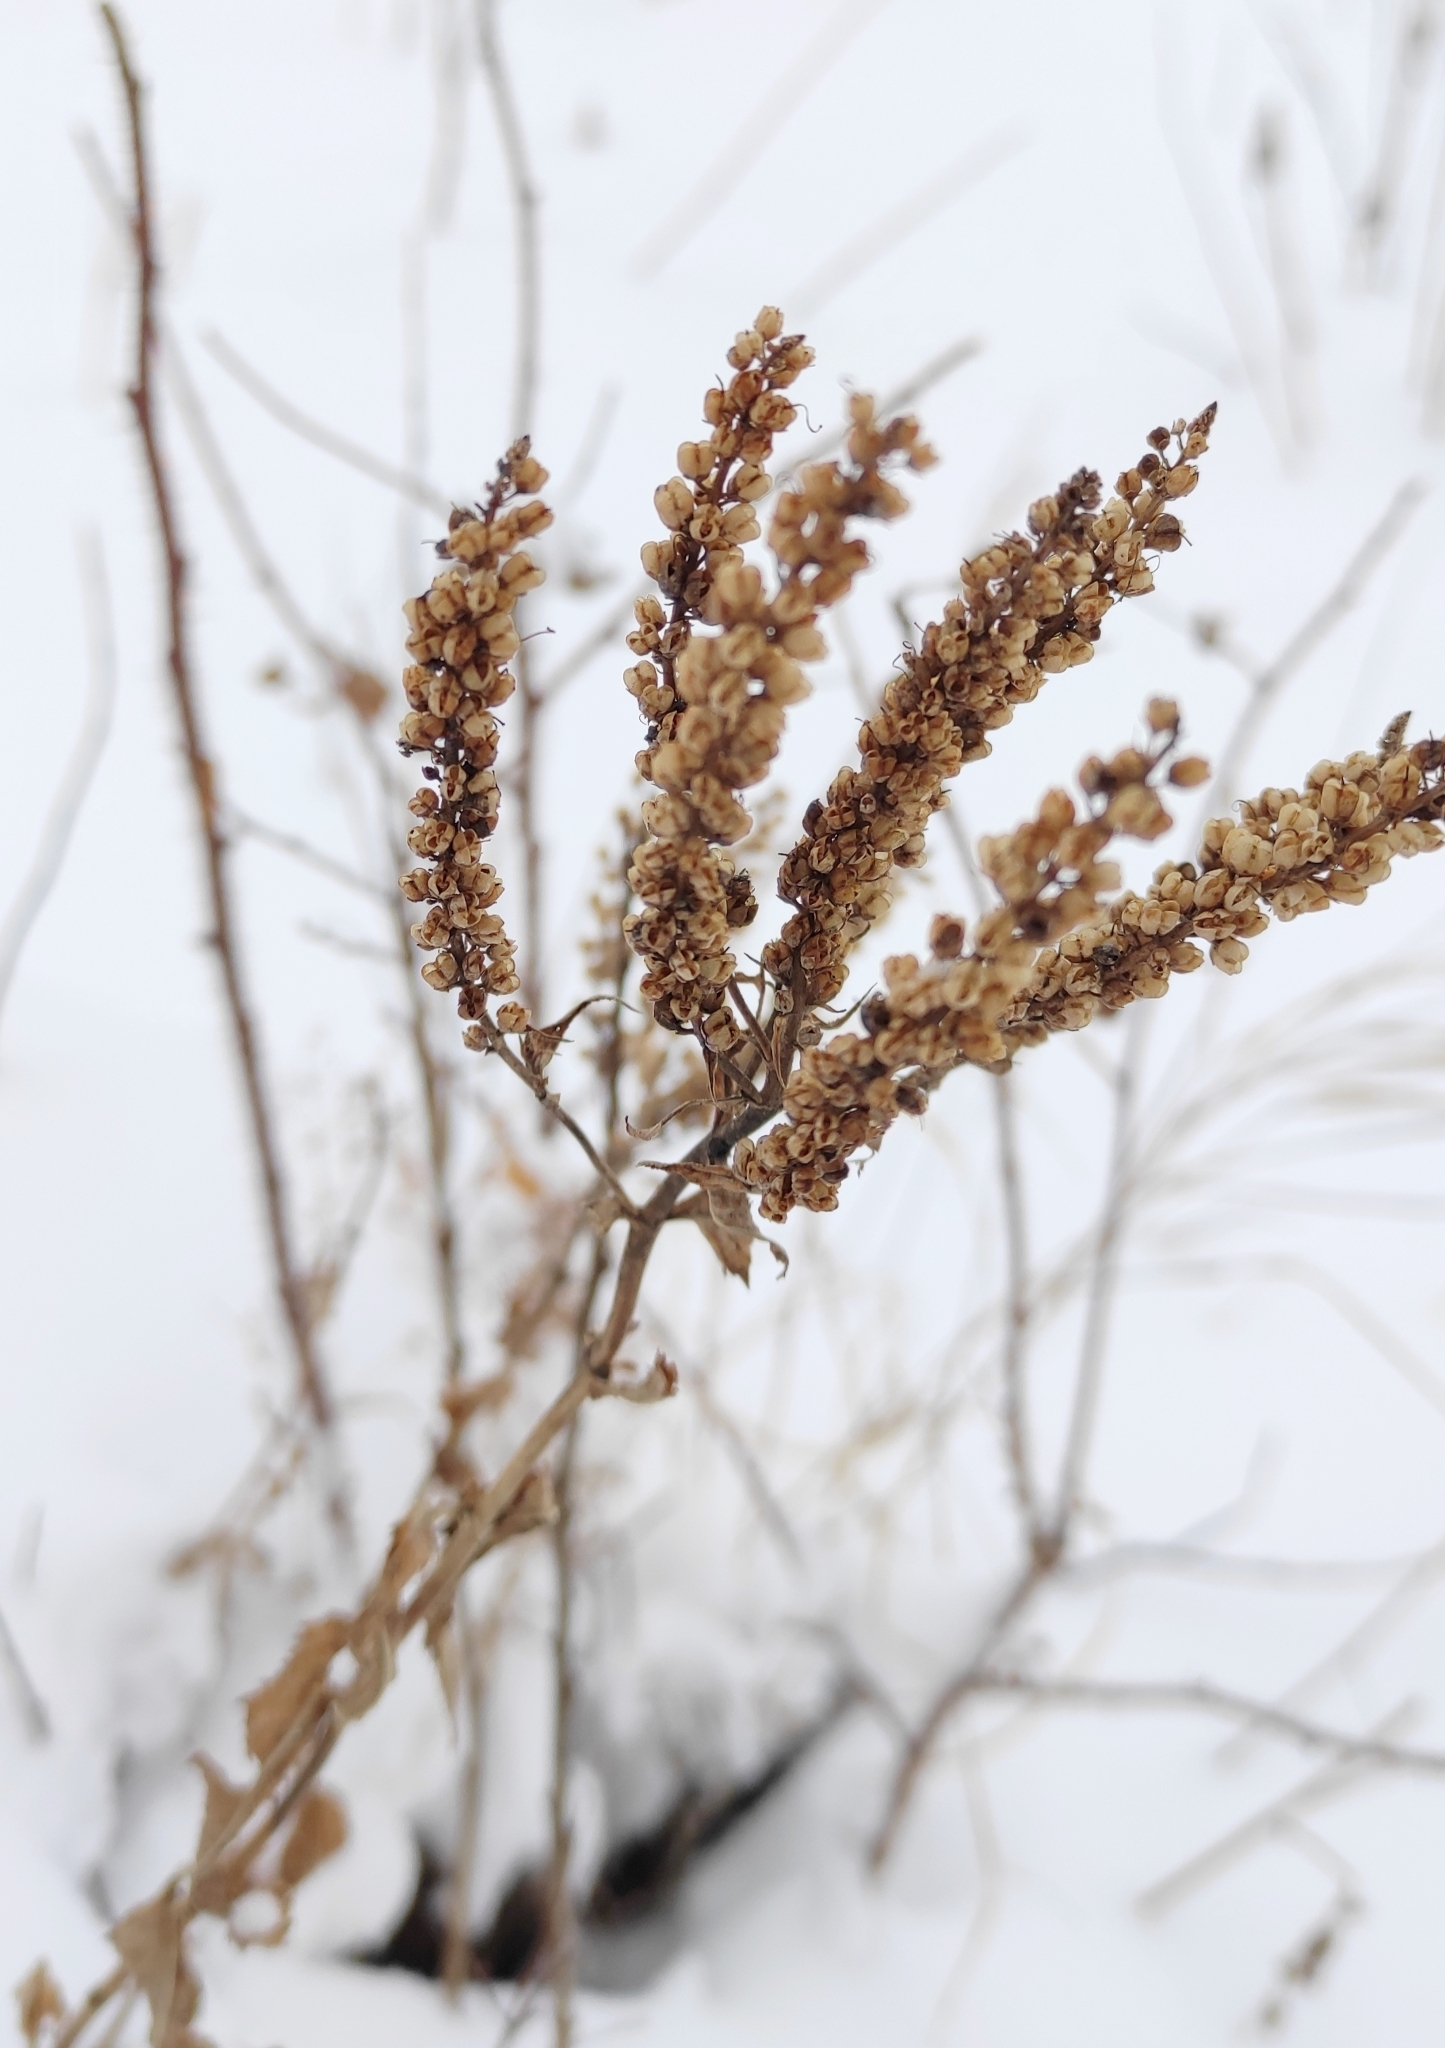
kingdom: Plantae
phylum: Tracheophyta
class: Magnoliopsida
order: Lamiales
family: Plantaginaceae
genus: Veronica
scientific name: Veronica longifolia
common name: Garden speedwell
